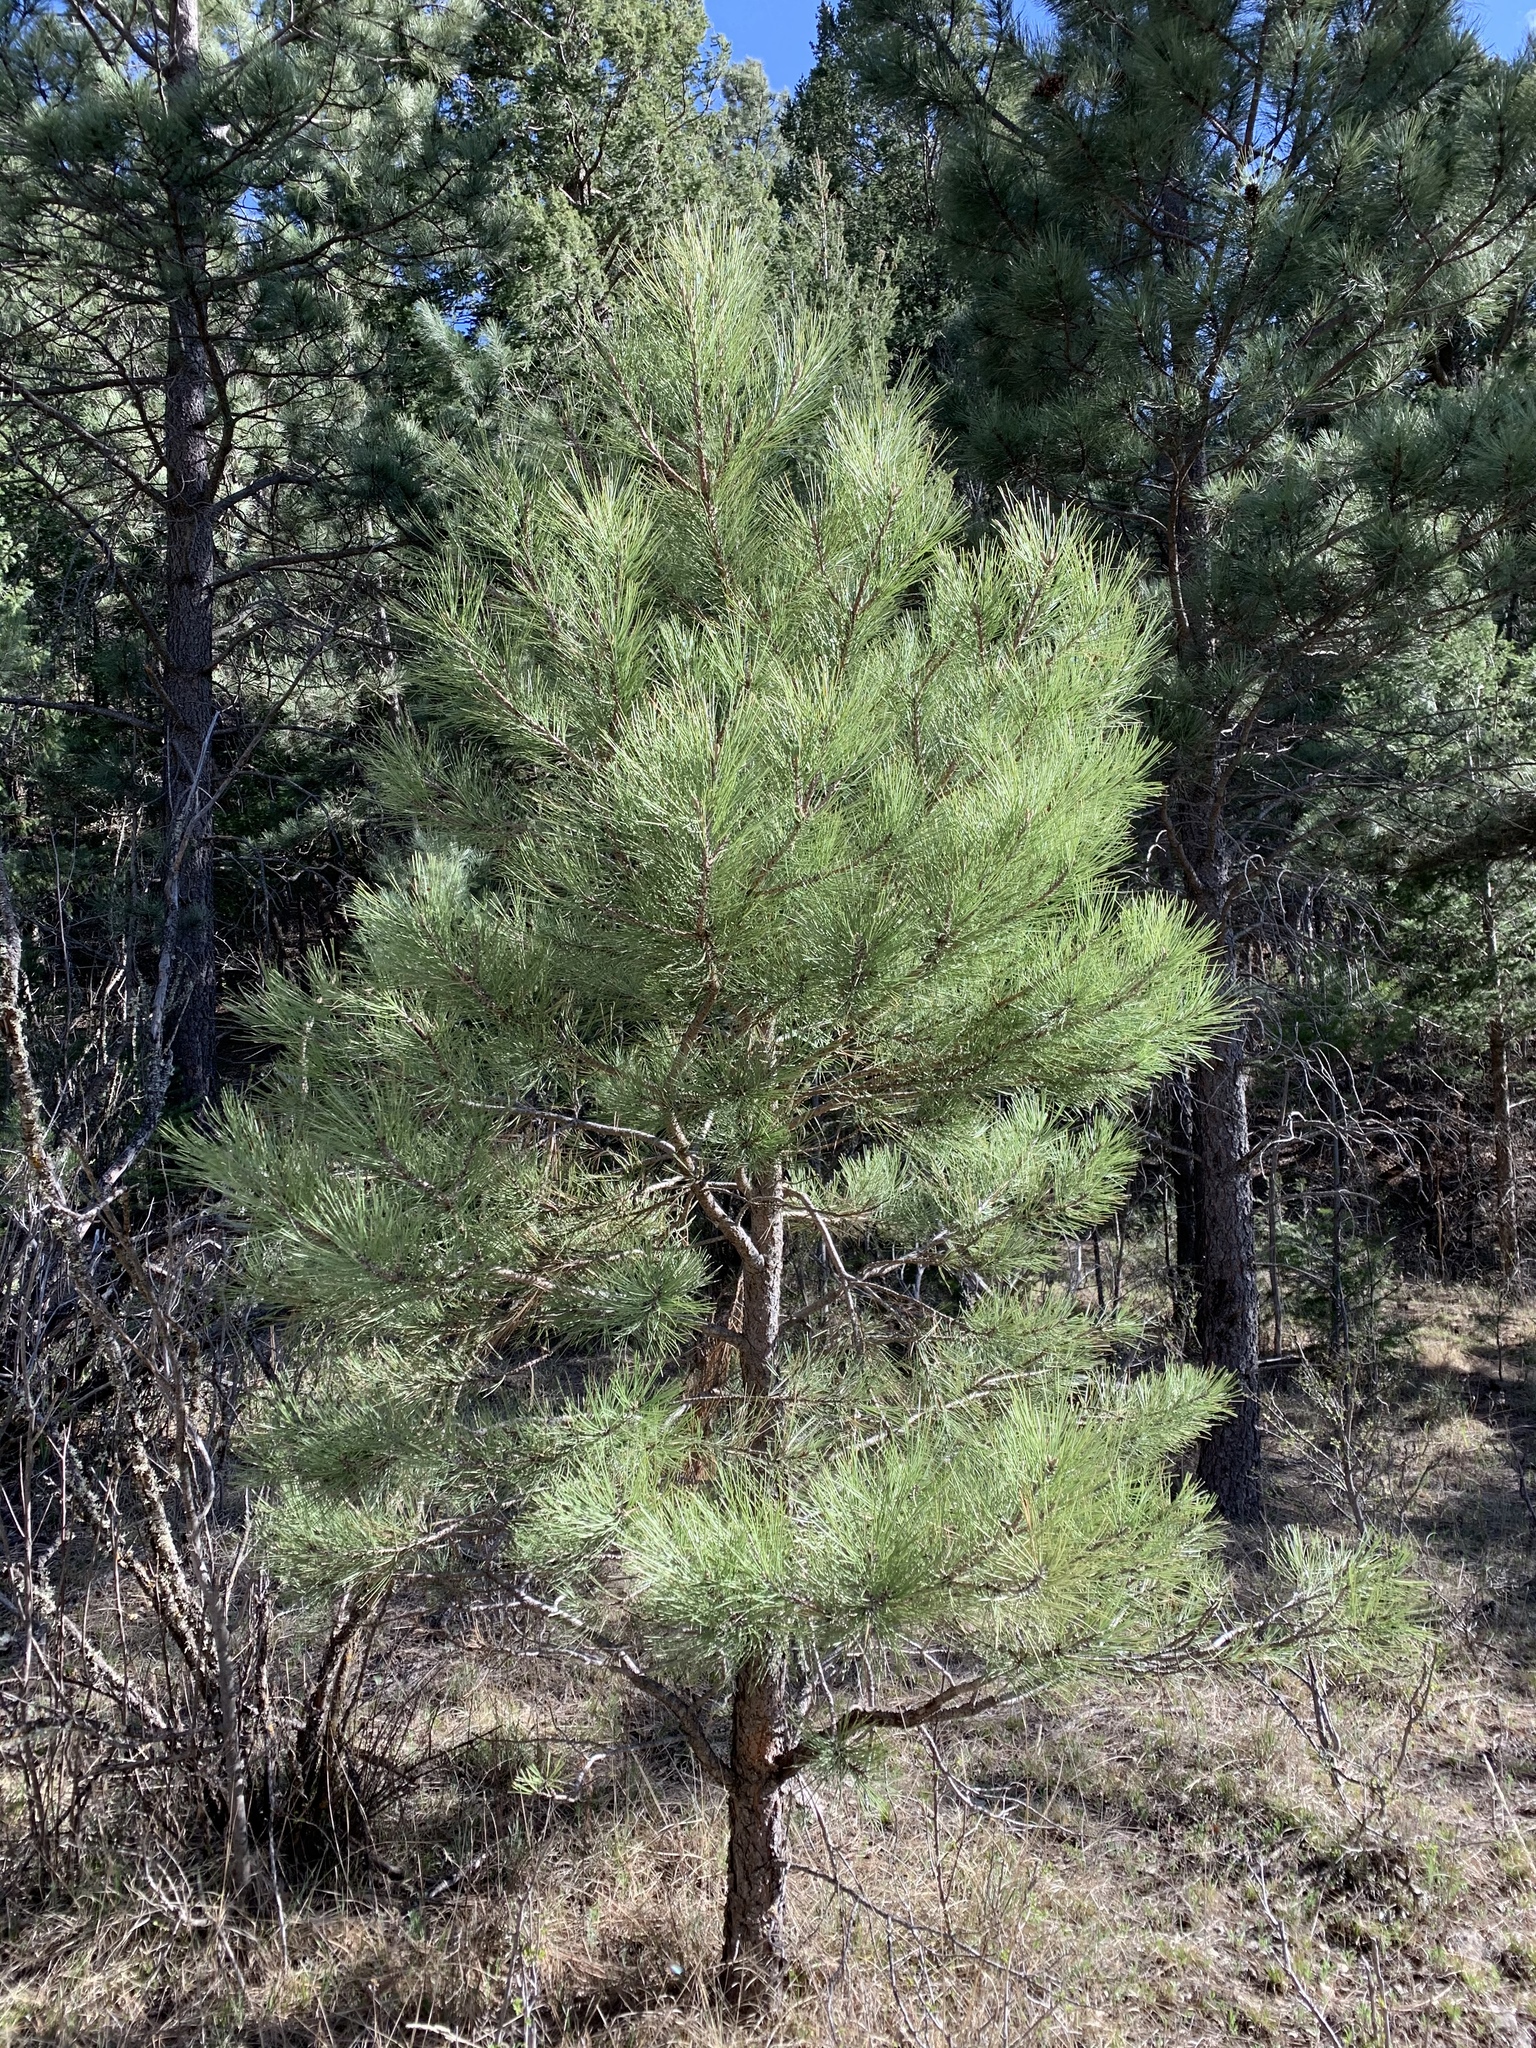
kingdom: Plantae
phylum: Tracheophyta
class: Pinopsida
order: Pinales
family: Pinaceae
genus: Pinus
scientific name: Pinus ponderosa
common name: Western yellow-pine
